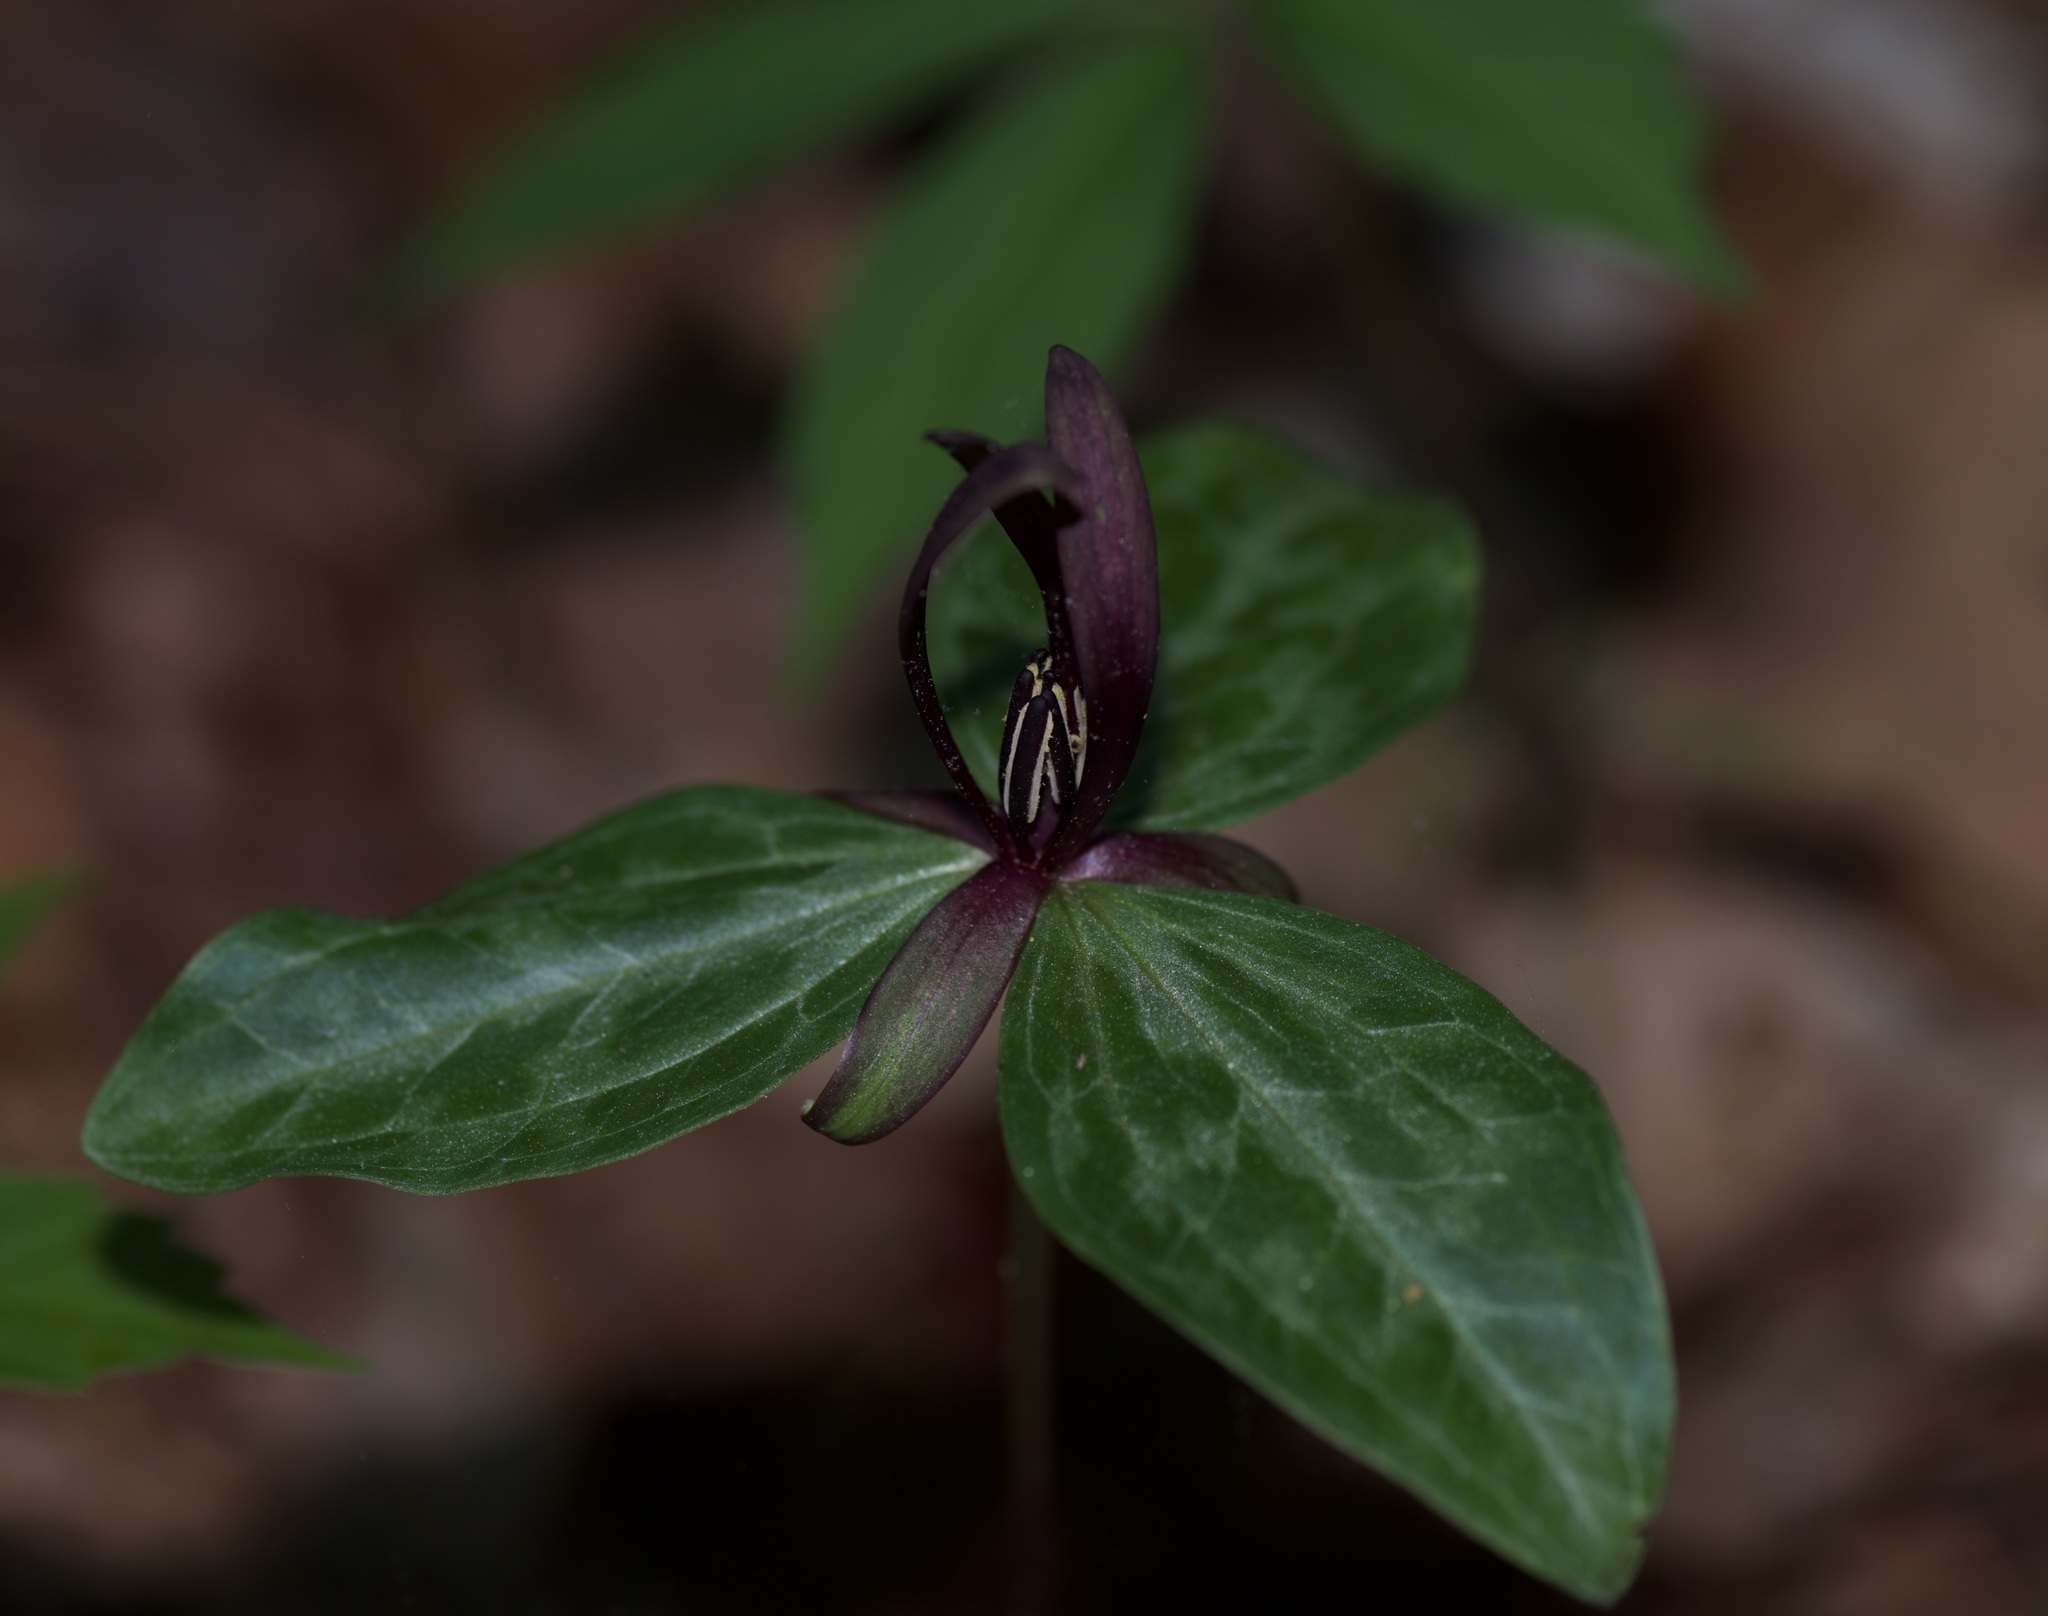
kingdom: Plantae
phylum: Tracheophyta
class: Liliopsida
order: Liliales
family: Melanthiaceae
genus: Trillium
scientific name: Trillium gracile
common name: Graceful trillium
